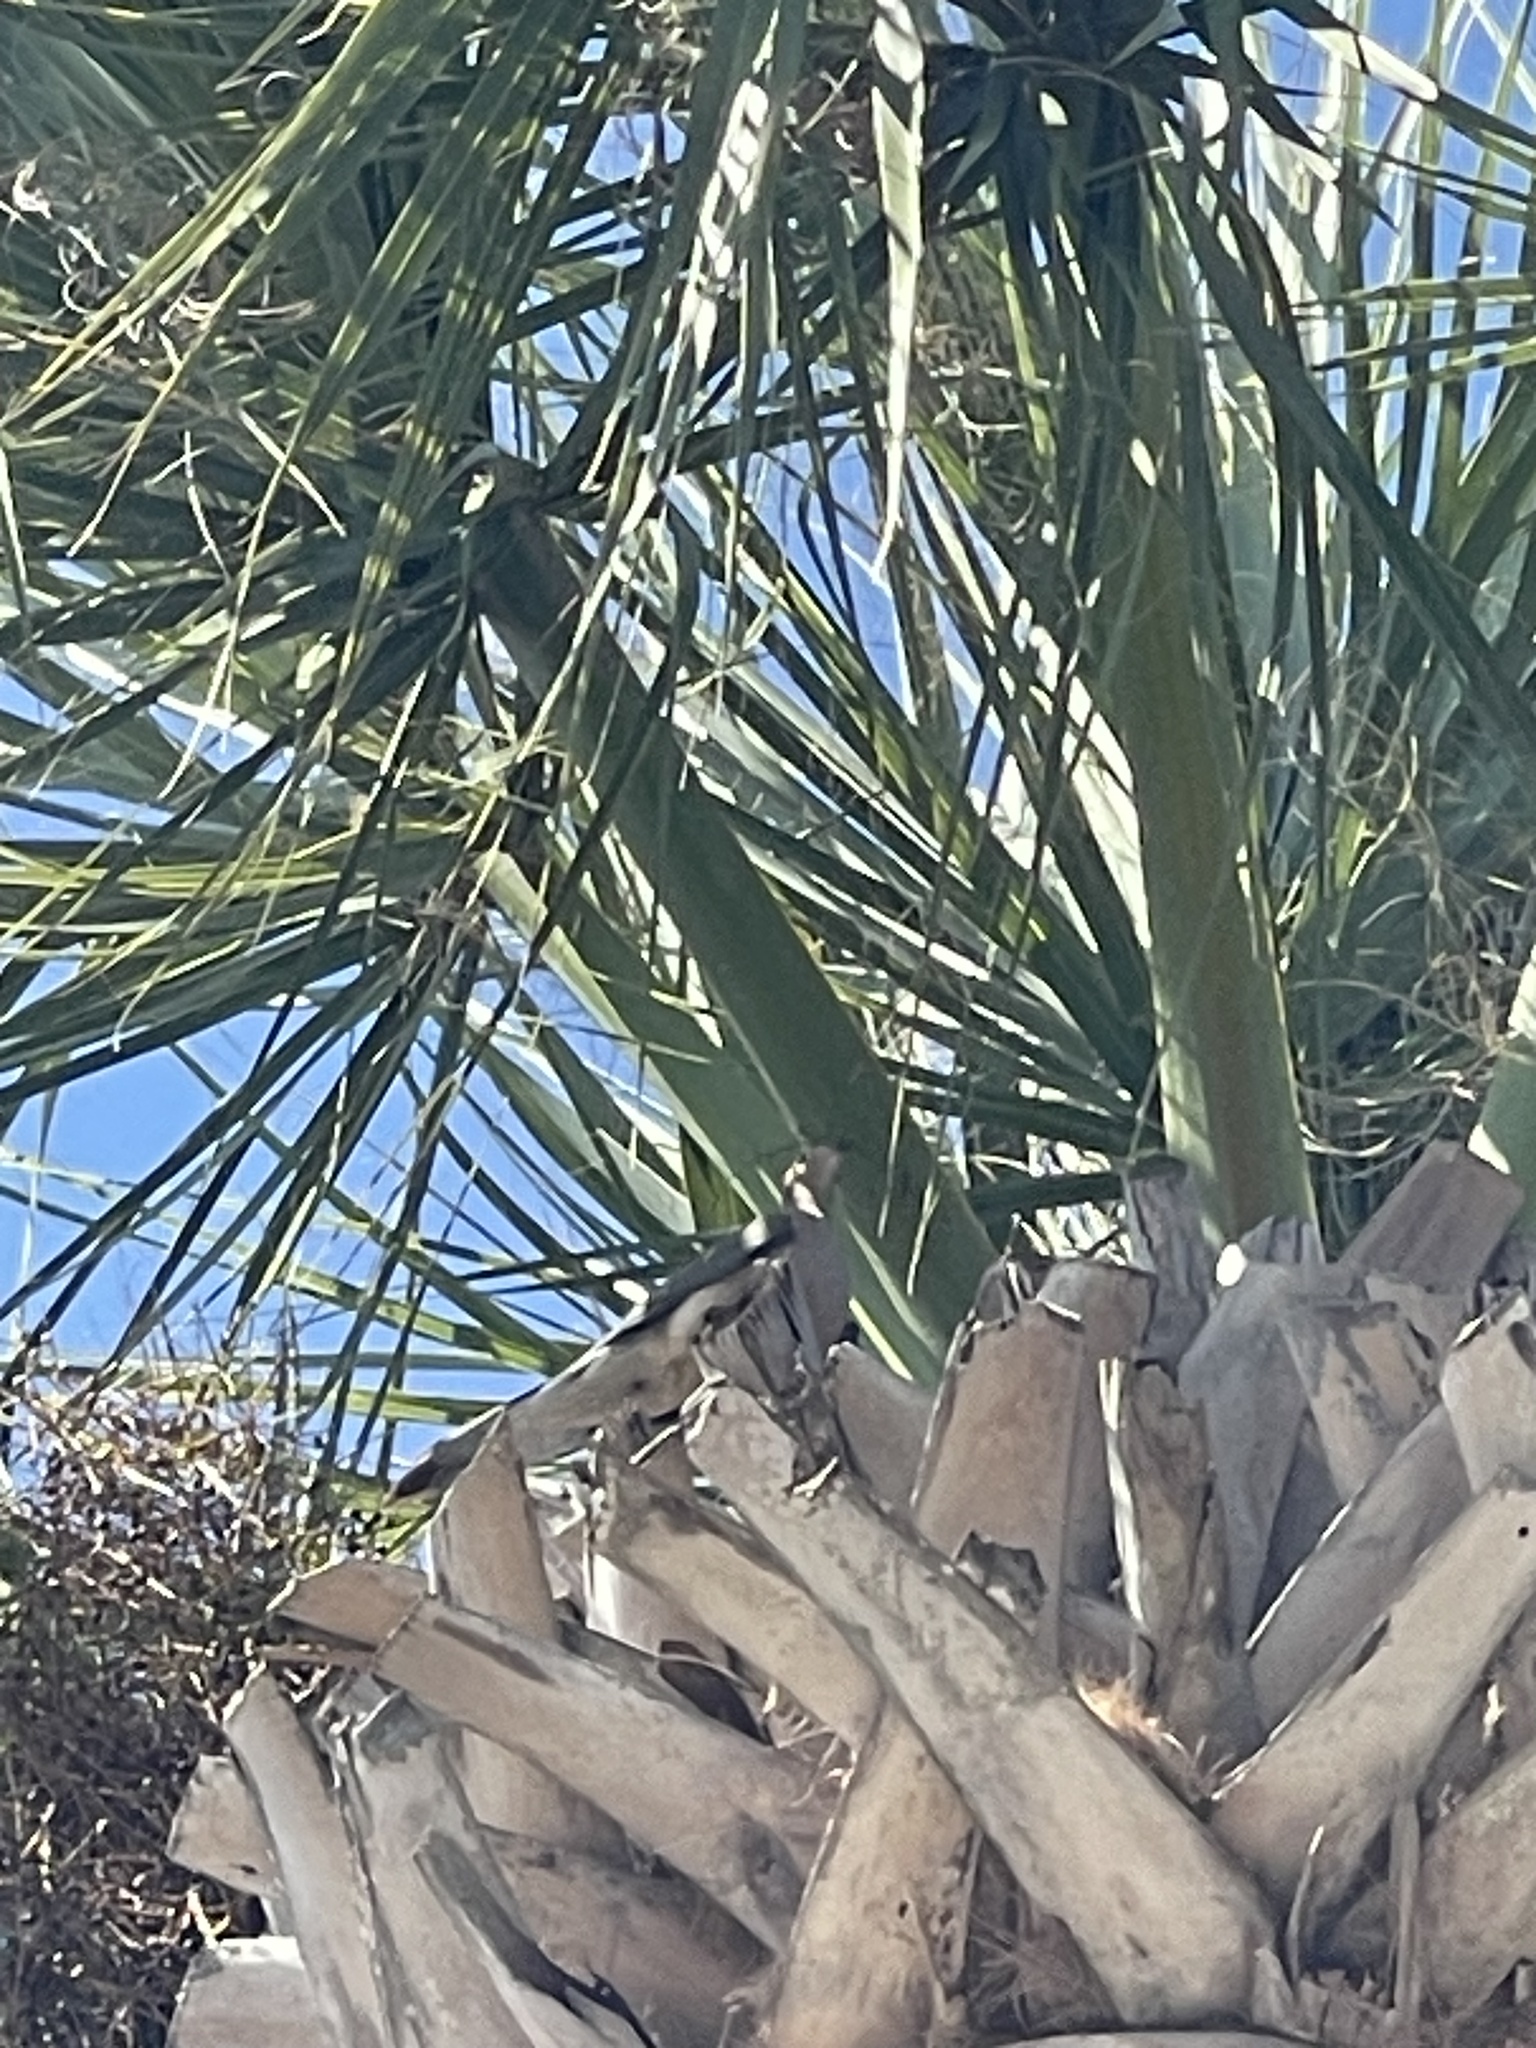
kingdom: Animalia
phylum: Chordata
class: Aves
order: Columbiformes
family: Columbidae
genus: Zenaida
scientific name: Zenaida macroura
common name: Mourning dove
